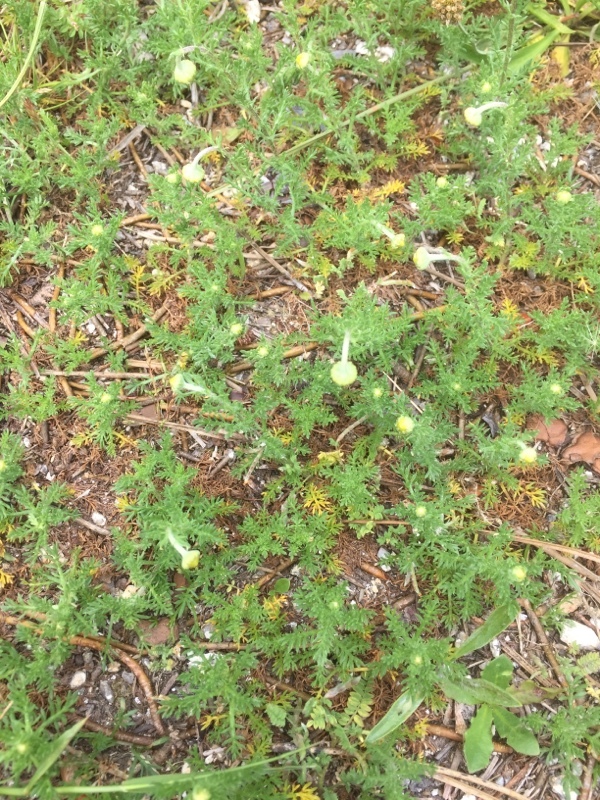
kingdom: Plantae
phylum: Tracheophyta
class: Magnoliopsida
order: Asterales
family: Asteraceae
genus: Cotula
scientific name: Cotula australis
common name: Australian waterbuttons
